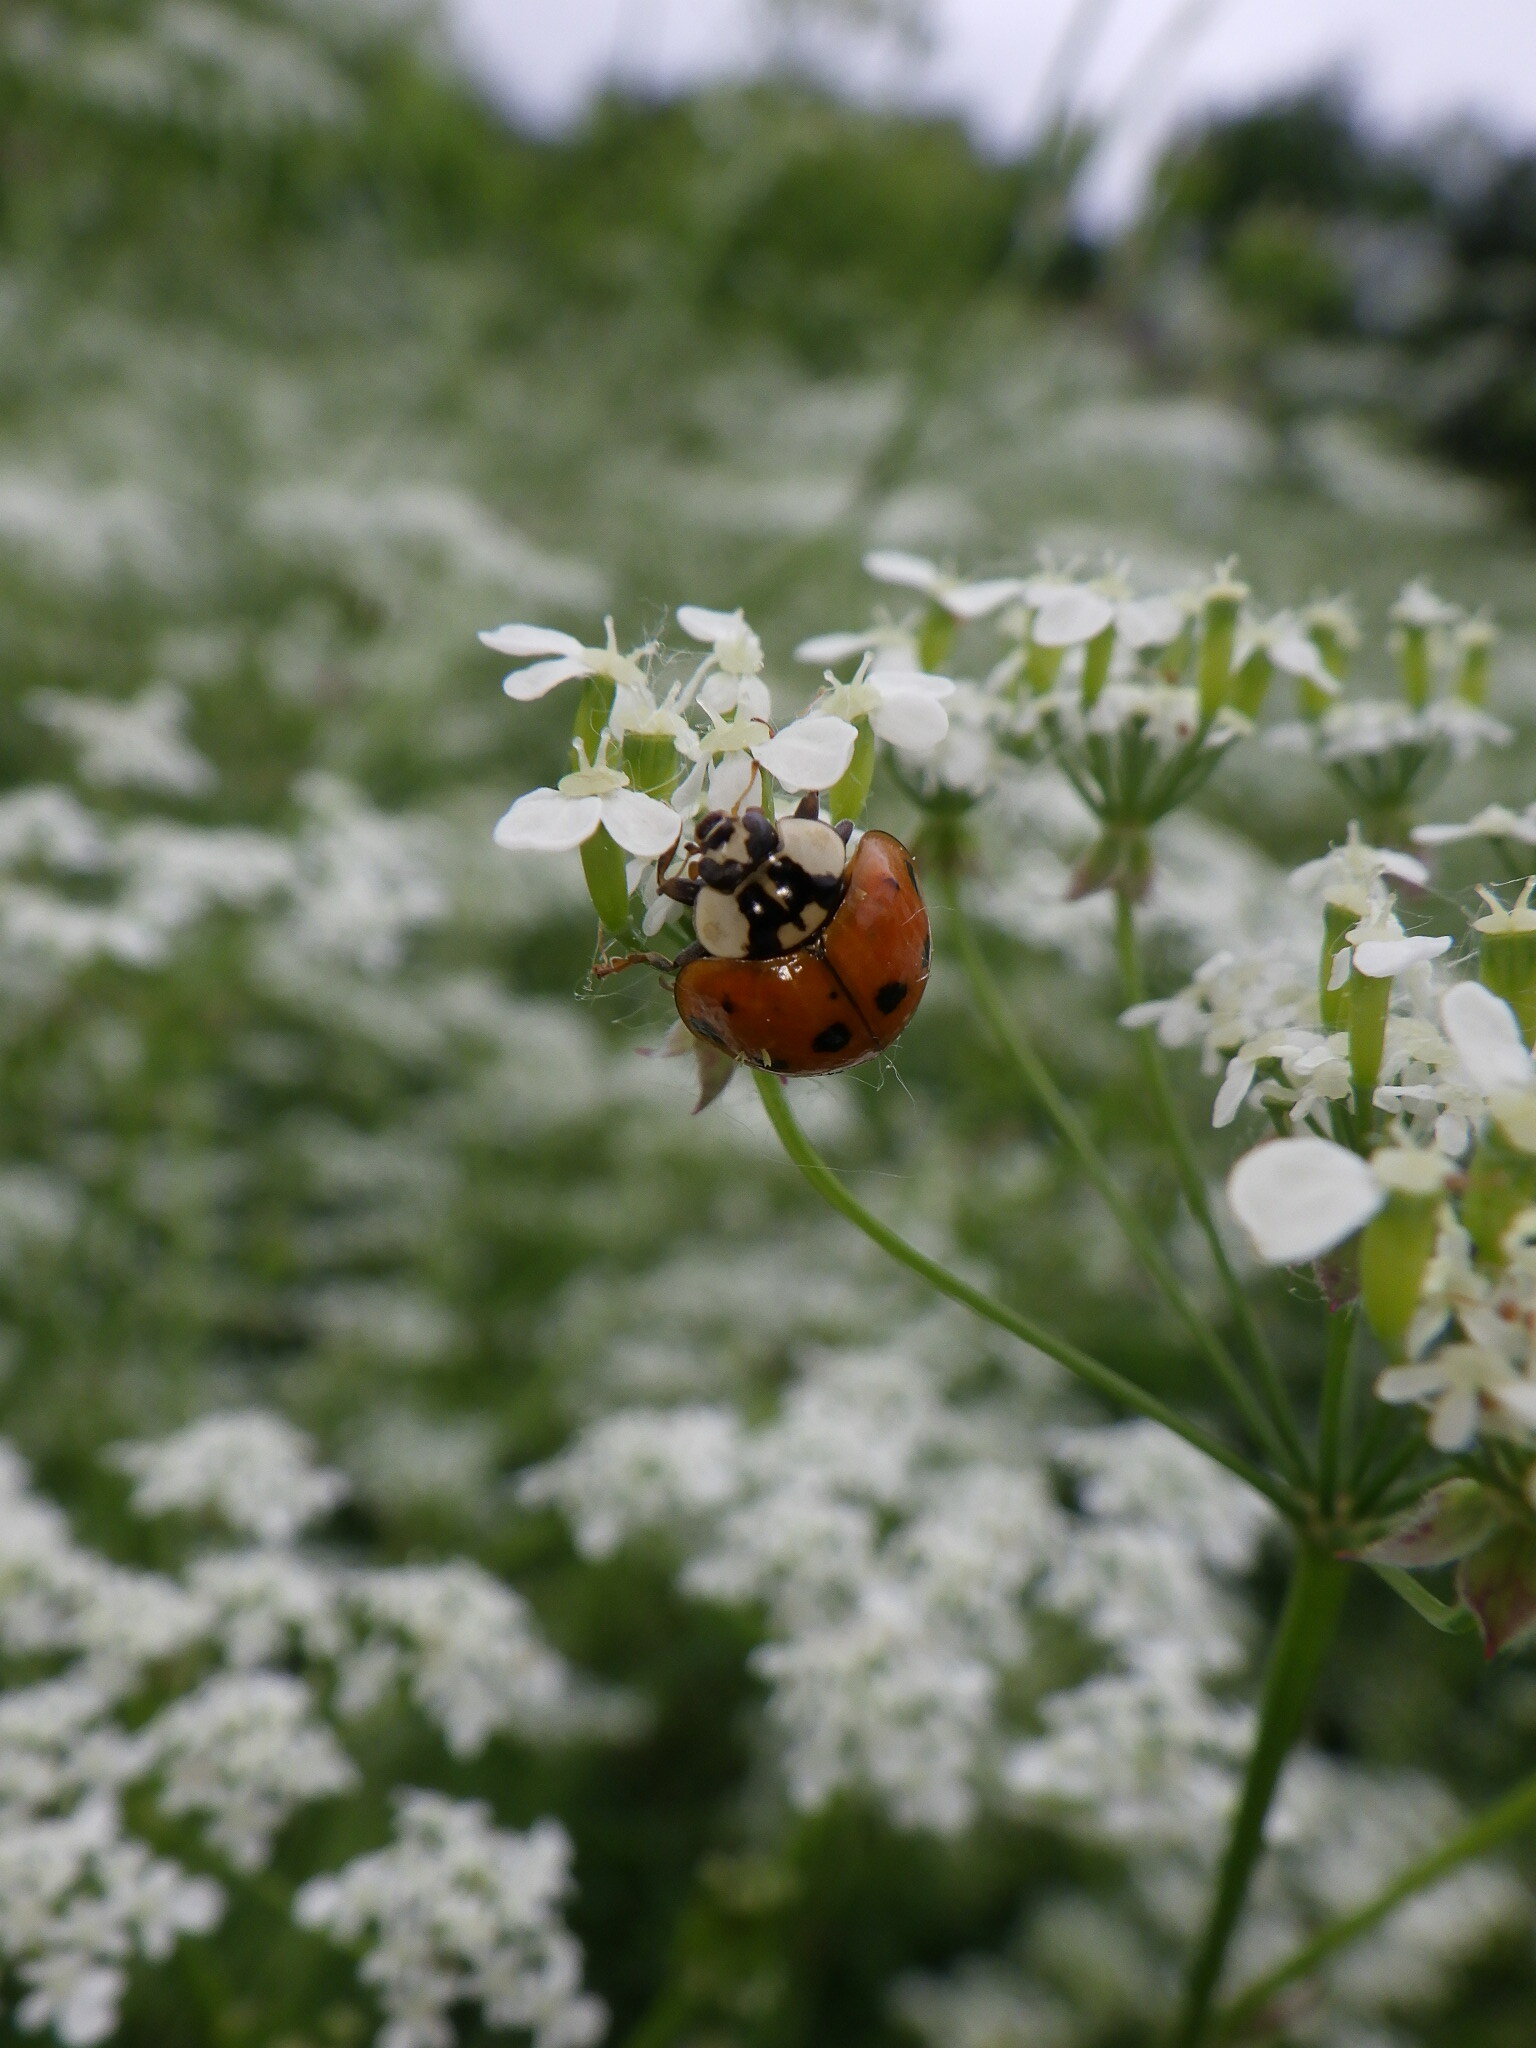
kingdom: Animalia
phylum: Arthropoda
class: Insecta
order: Coleoptera
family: Coccinellidae
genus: Harmonia
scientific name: Harmonia axyridis
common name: Harlequin ladybird
